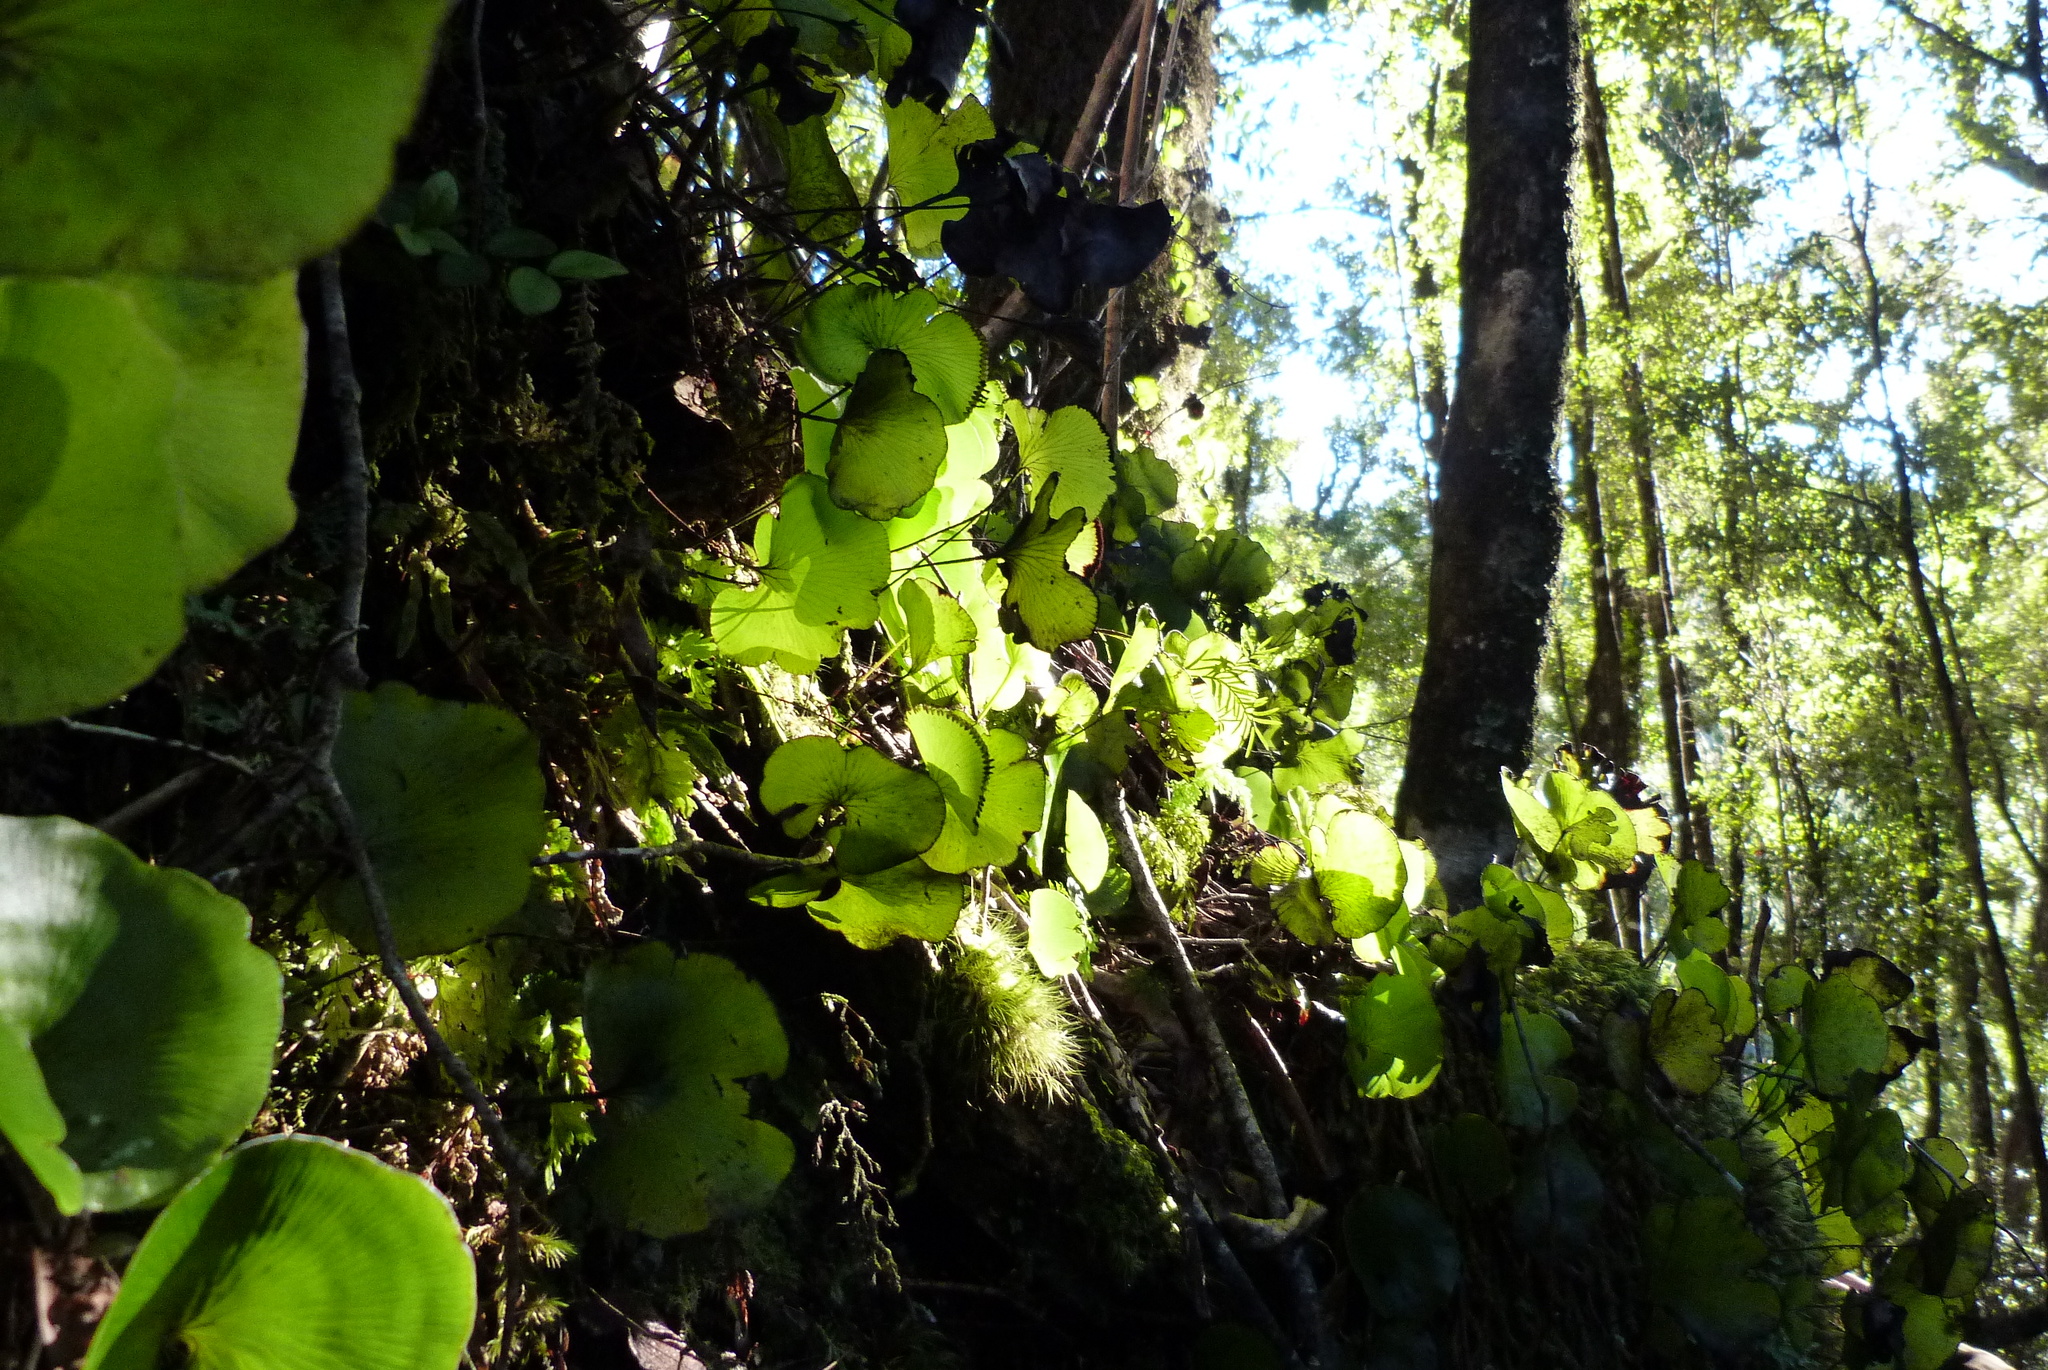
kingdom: Plantae
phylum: Tracheophyta
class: Polypodiopsida
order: Hymenophyllales
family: Hymenophyllaceae
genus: Hymenophyllum
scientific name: Hymenophyllum nephrophyllum
